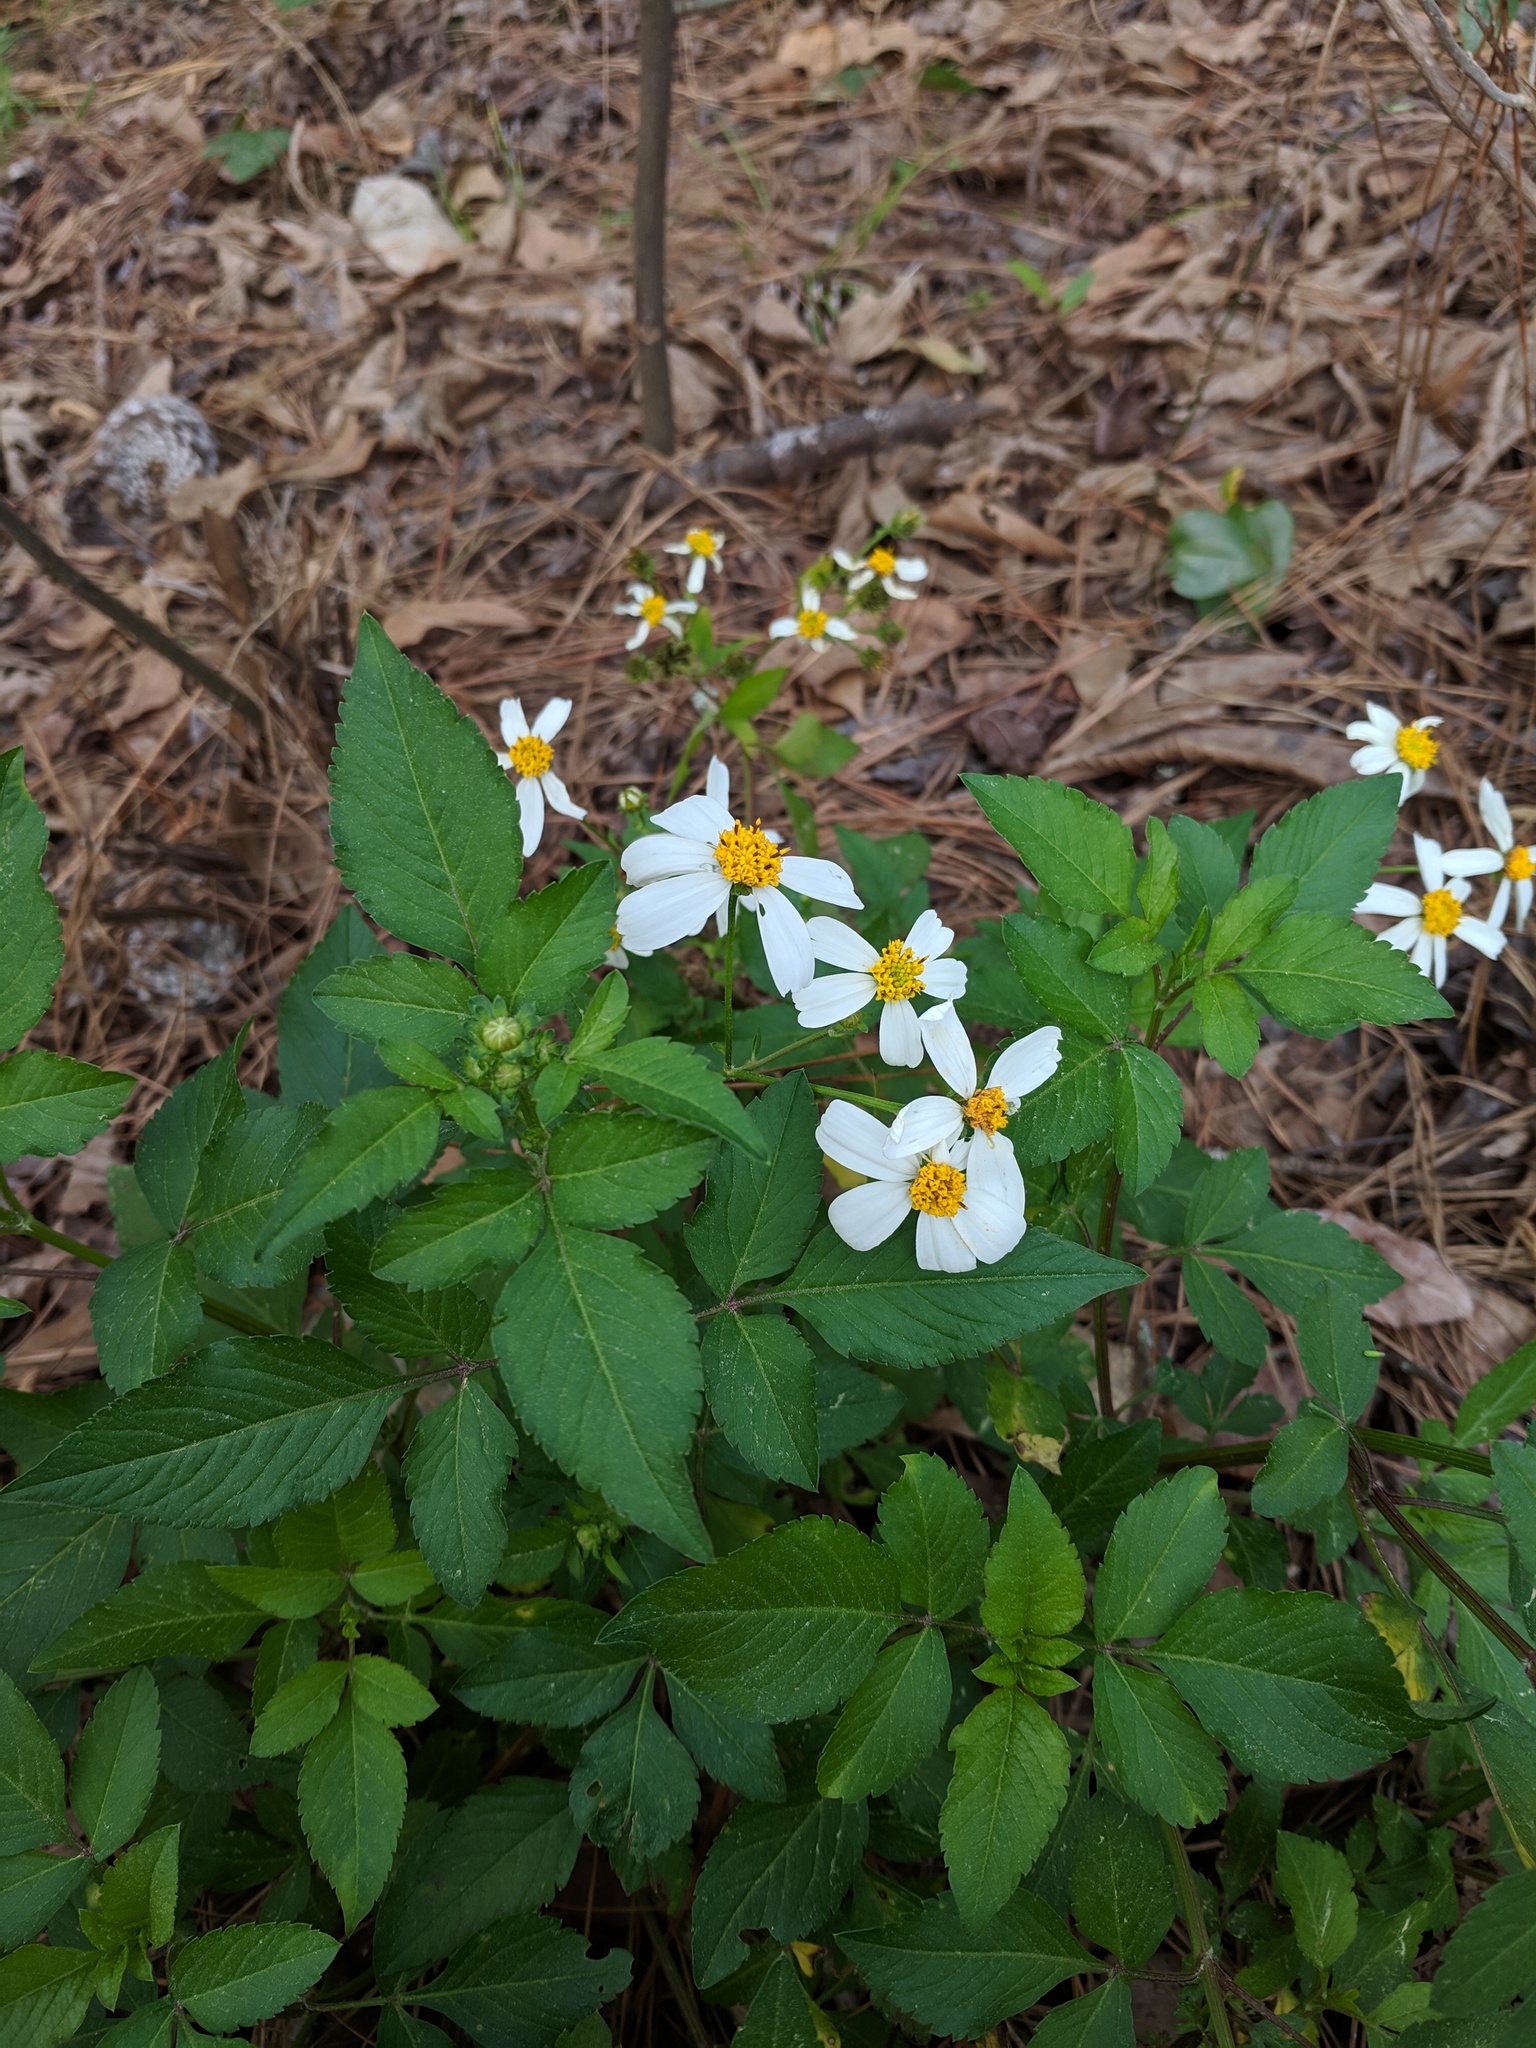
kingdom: Plantae
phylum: Tracheophyta
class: Magnoliopsida
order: Asterales
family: Asteraceae
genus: Bidens
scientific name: Bidens alba
